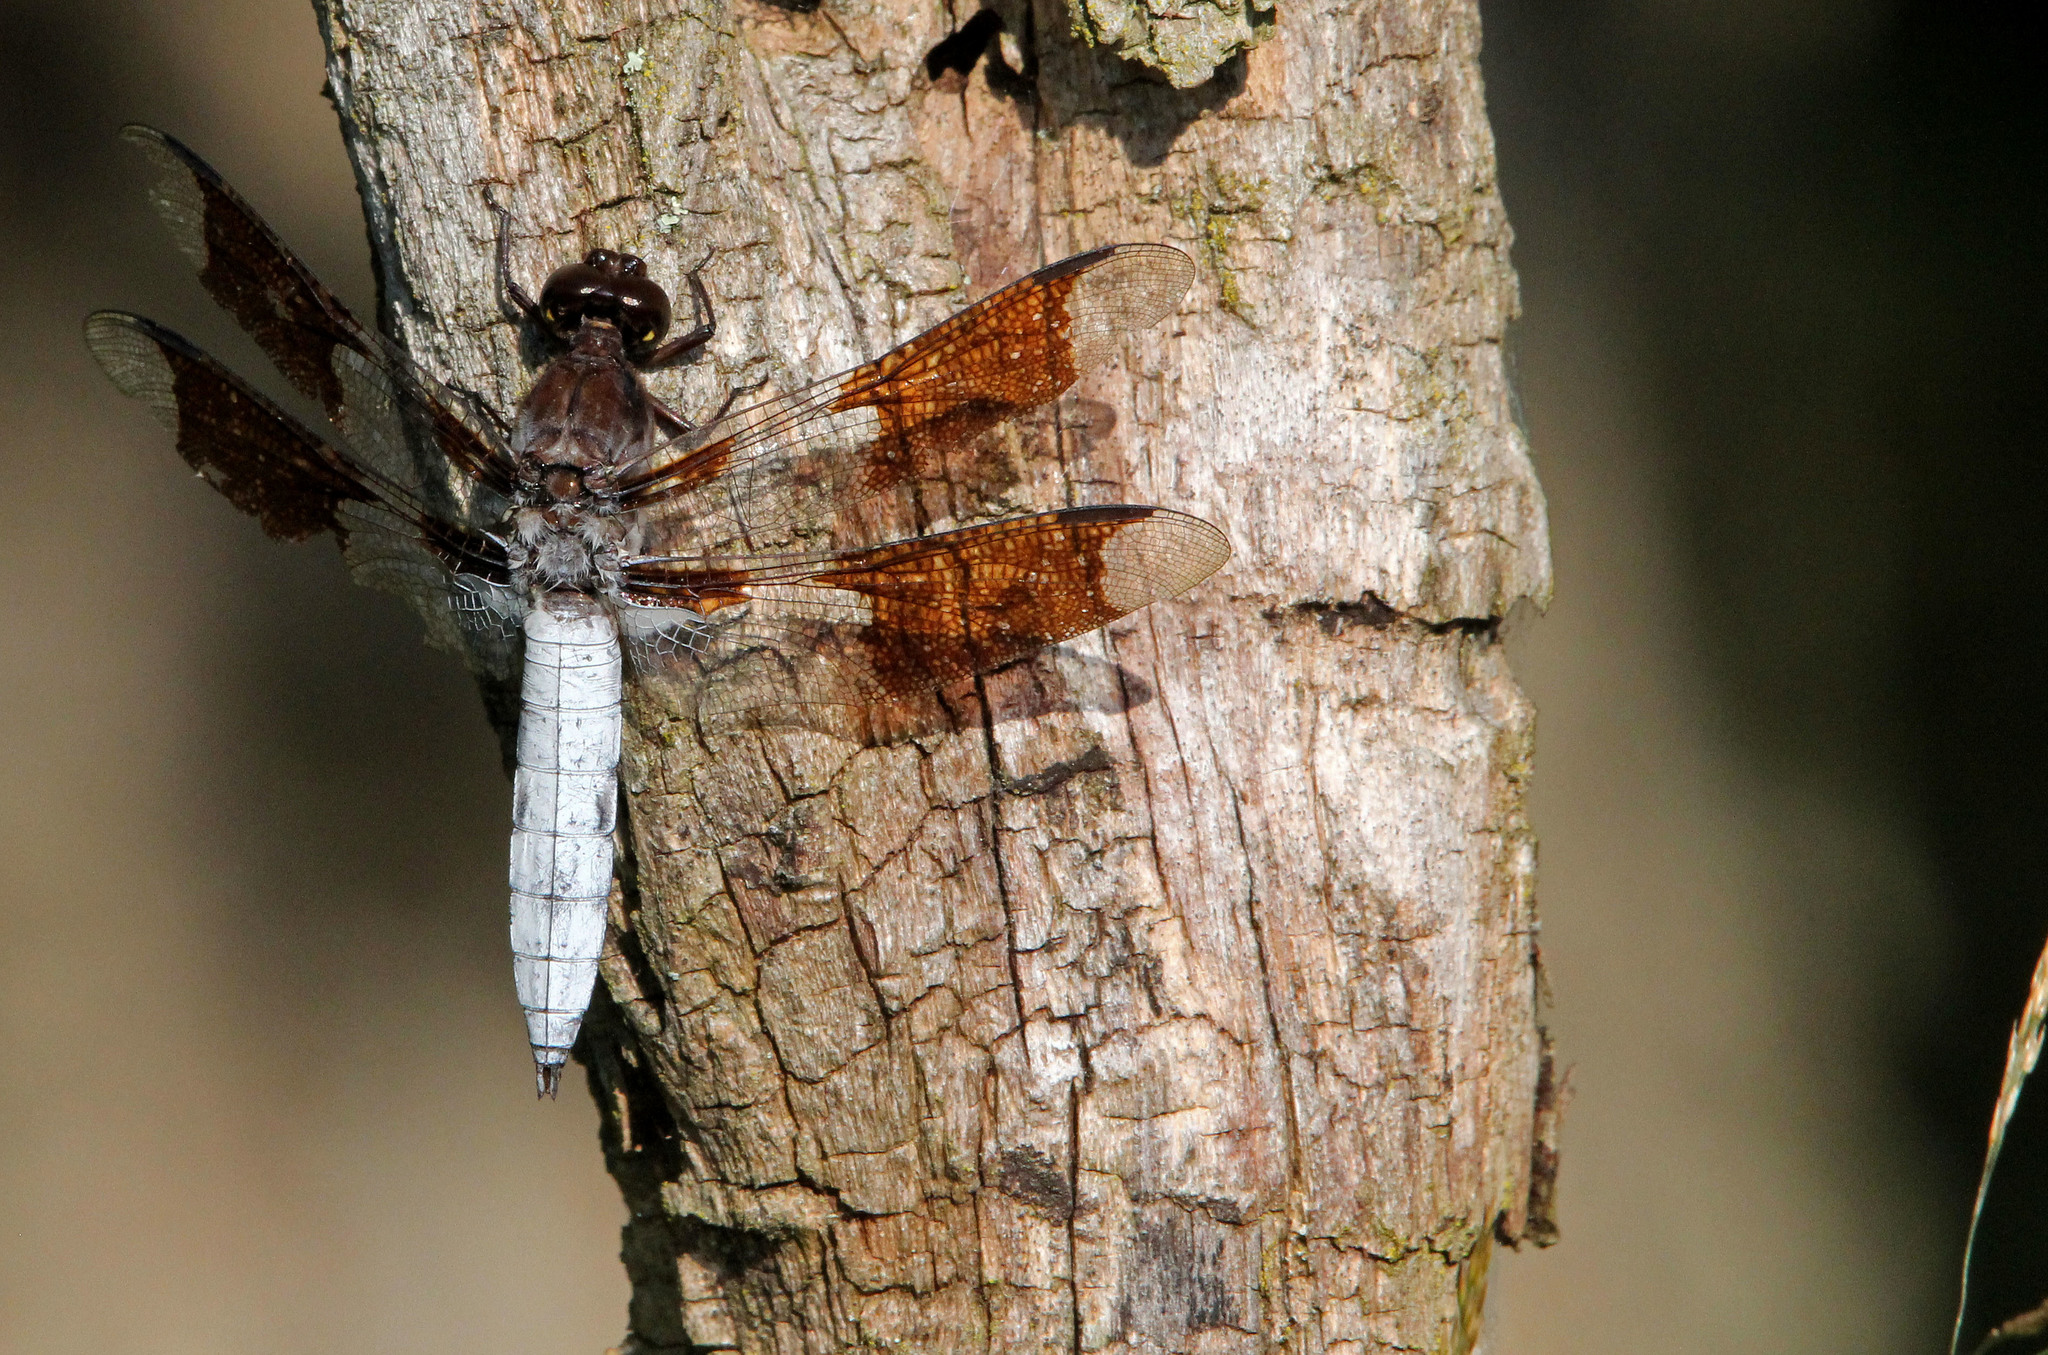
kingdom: Animalia
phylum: Arthropoda
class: Insecta
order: Odonata
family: Libellulidae
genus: Plathemis
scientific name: Plathemis lydia
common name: Common whitetail
